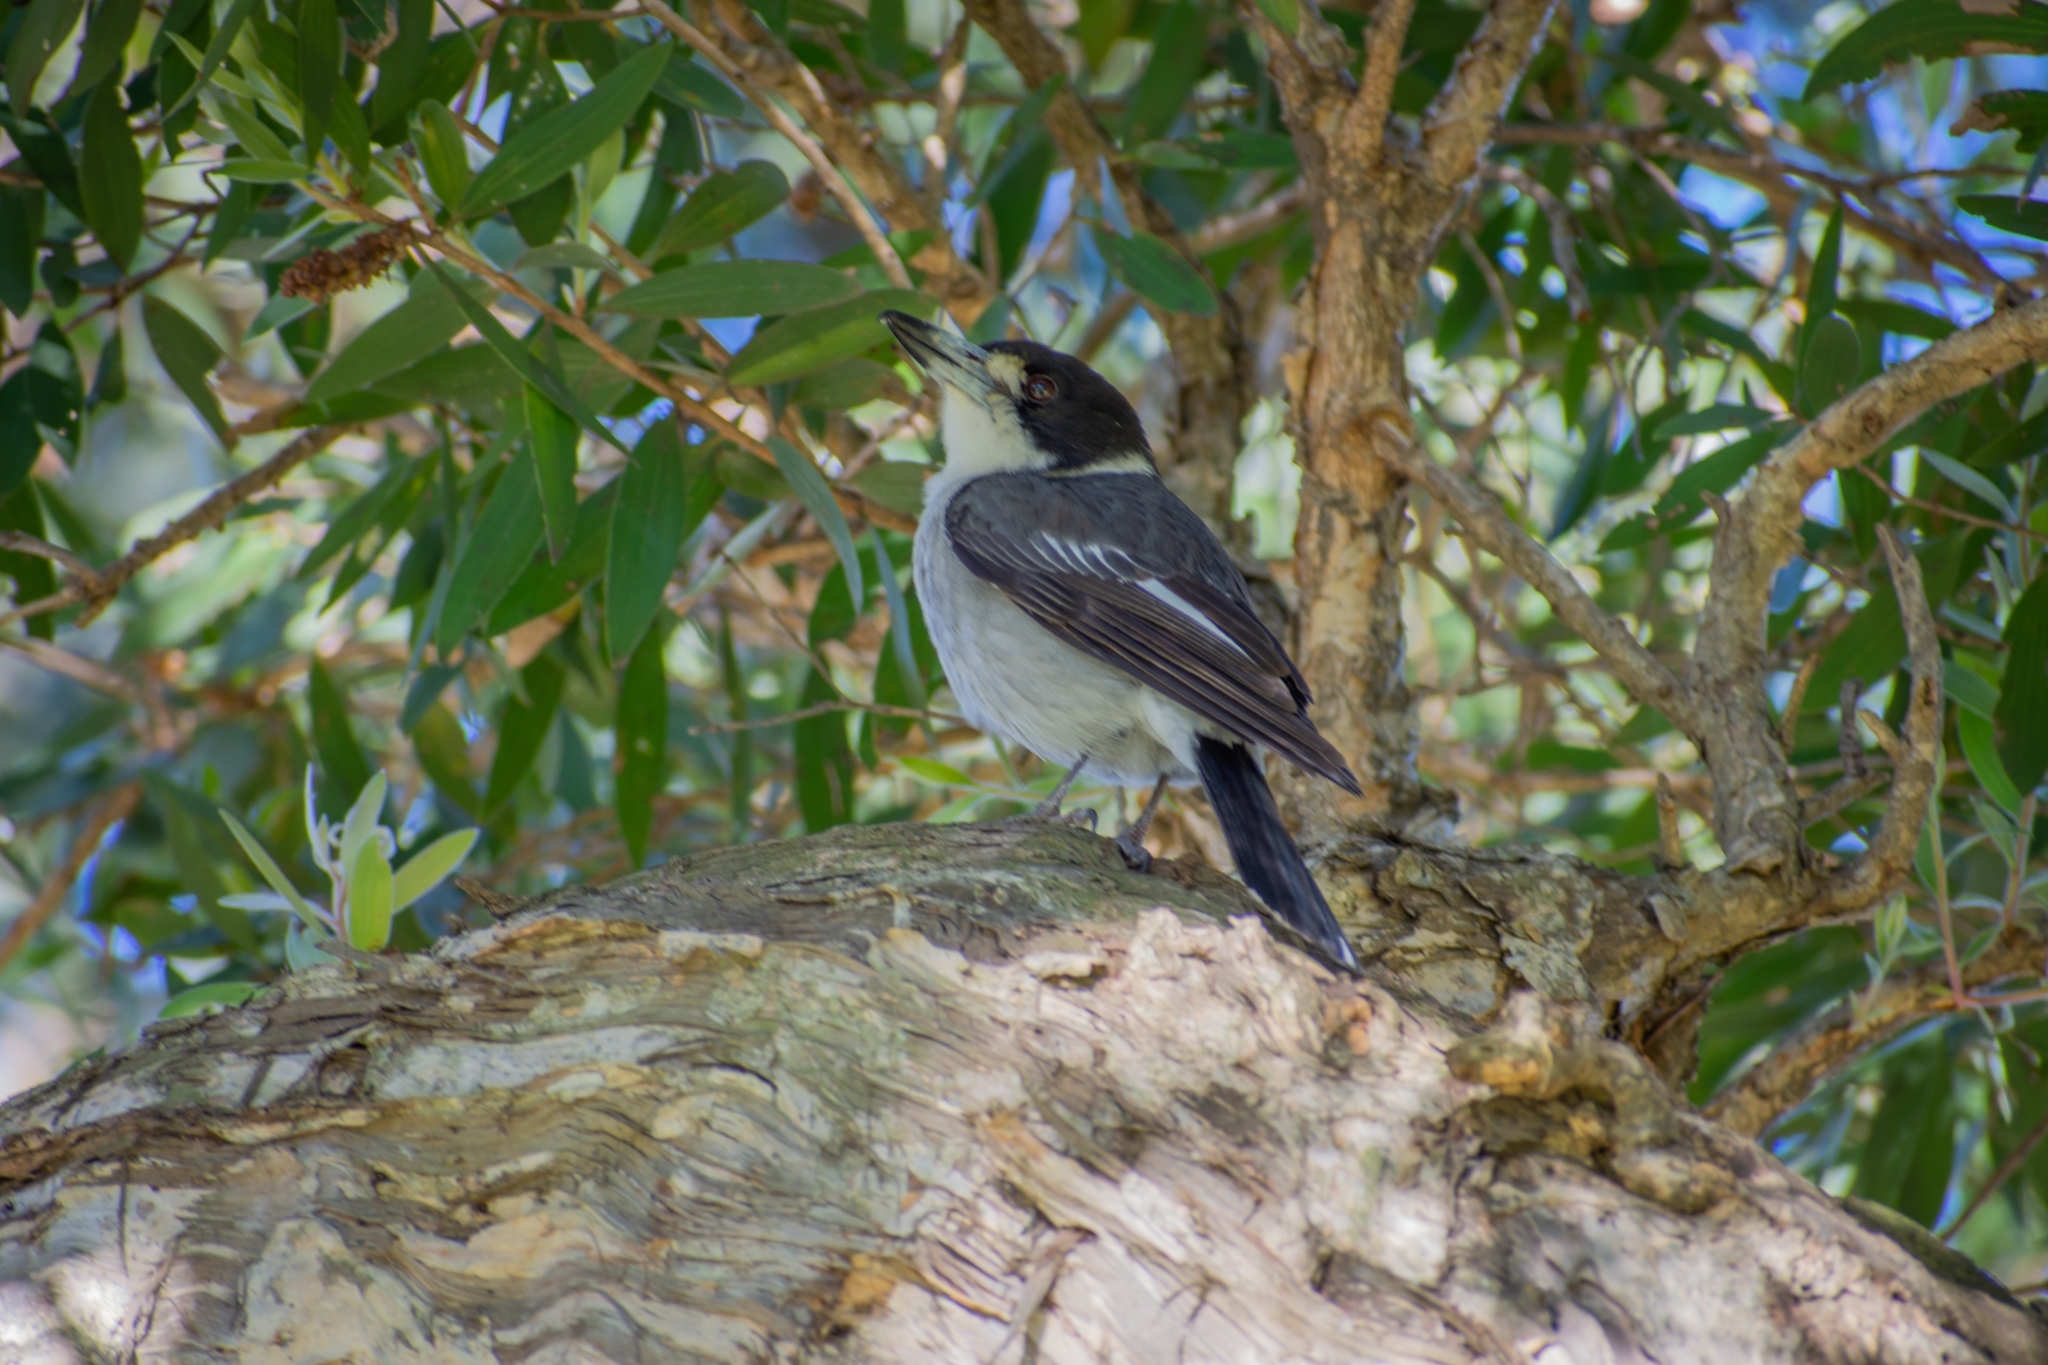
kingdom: Animalia
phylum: Chordata
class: Aves
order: Passeriformes
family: Cracticidae
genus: Cracticus
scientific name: Cracticus torquatus
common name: Grey butcherbird
